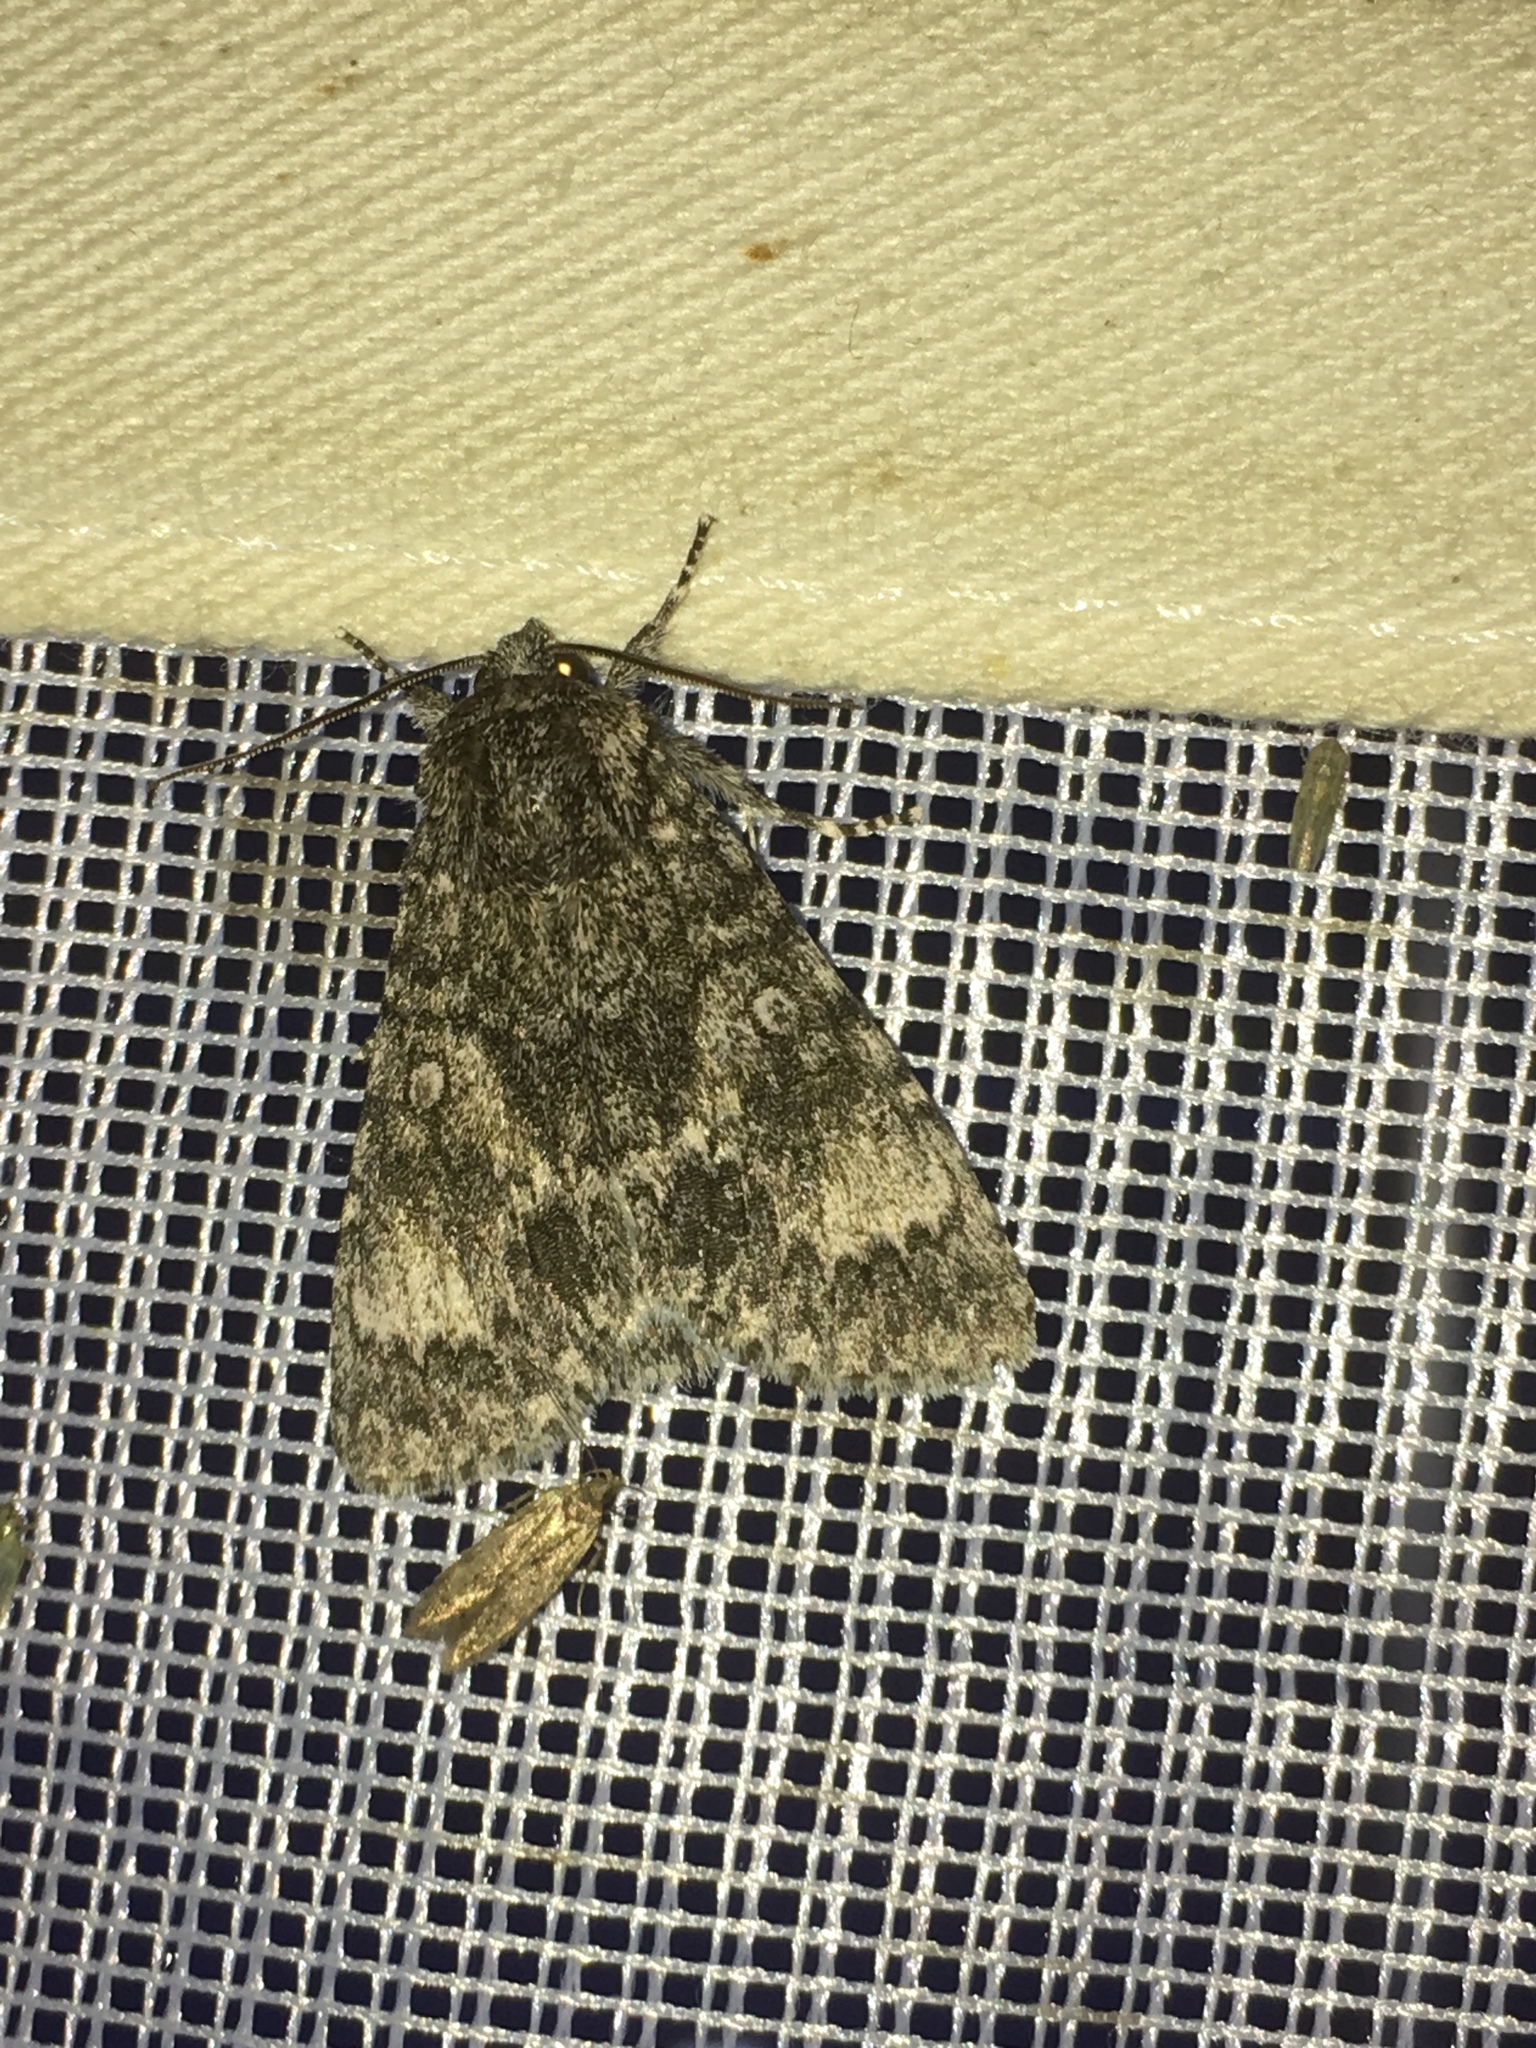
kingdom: Animalia
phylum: Arthropoda
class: Insecta
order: Lepidoptera
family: Noctuidae
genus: Acronicta
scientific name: Acronicta megacephala
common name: Poplar grey
